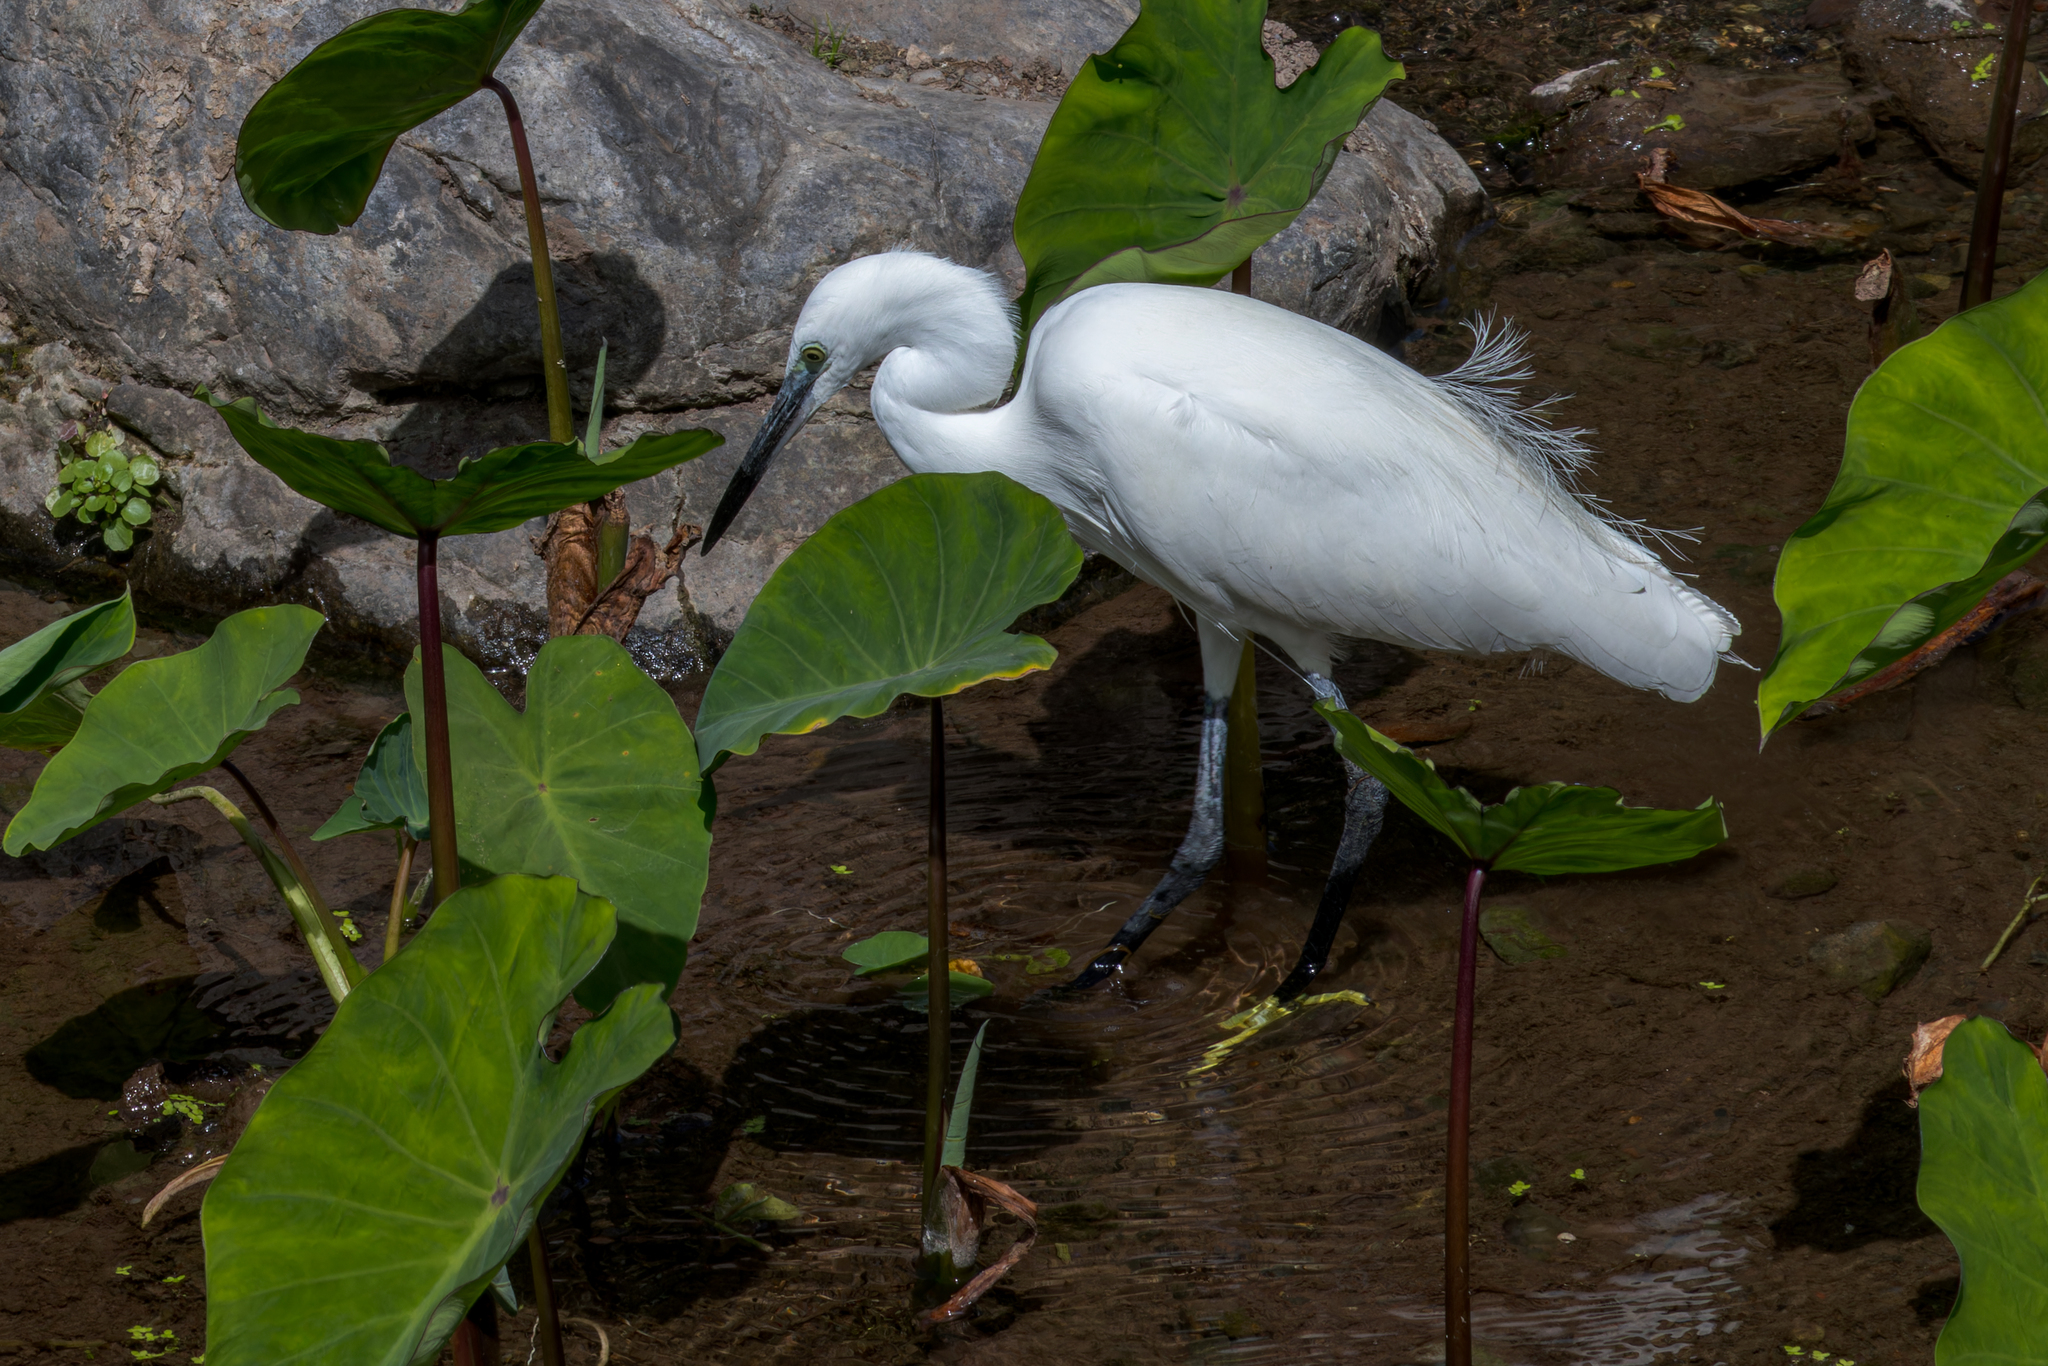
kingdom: Animalia
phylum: Chordata
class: Aves
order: Pelecaniformes
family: Ardeidae
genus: Egretta
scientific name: Egretta garzetta
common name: Little egret
